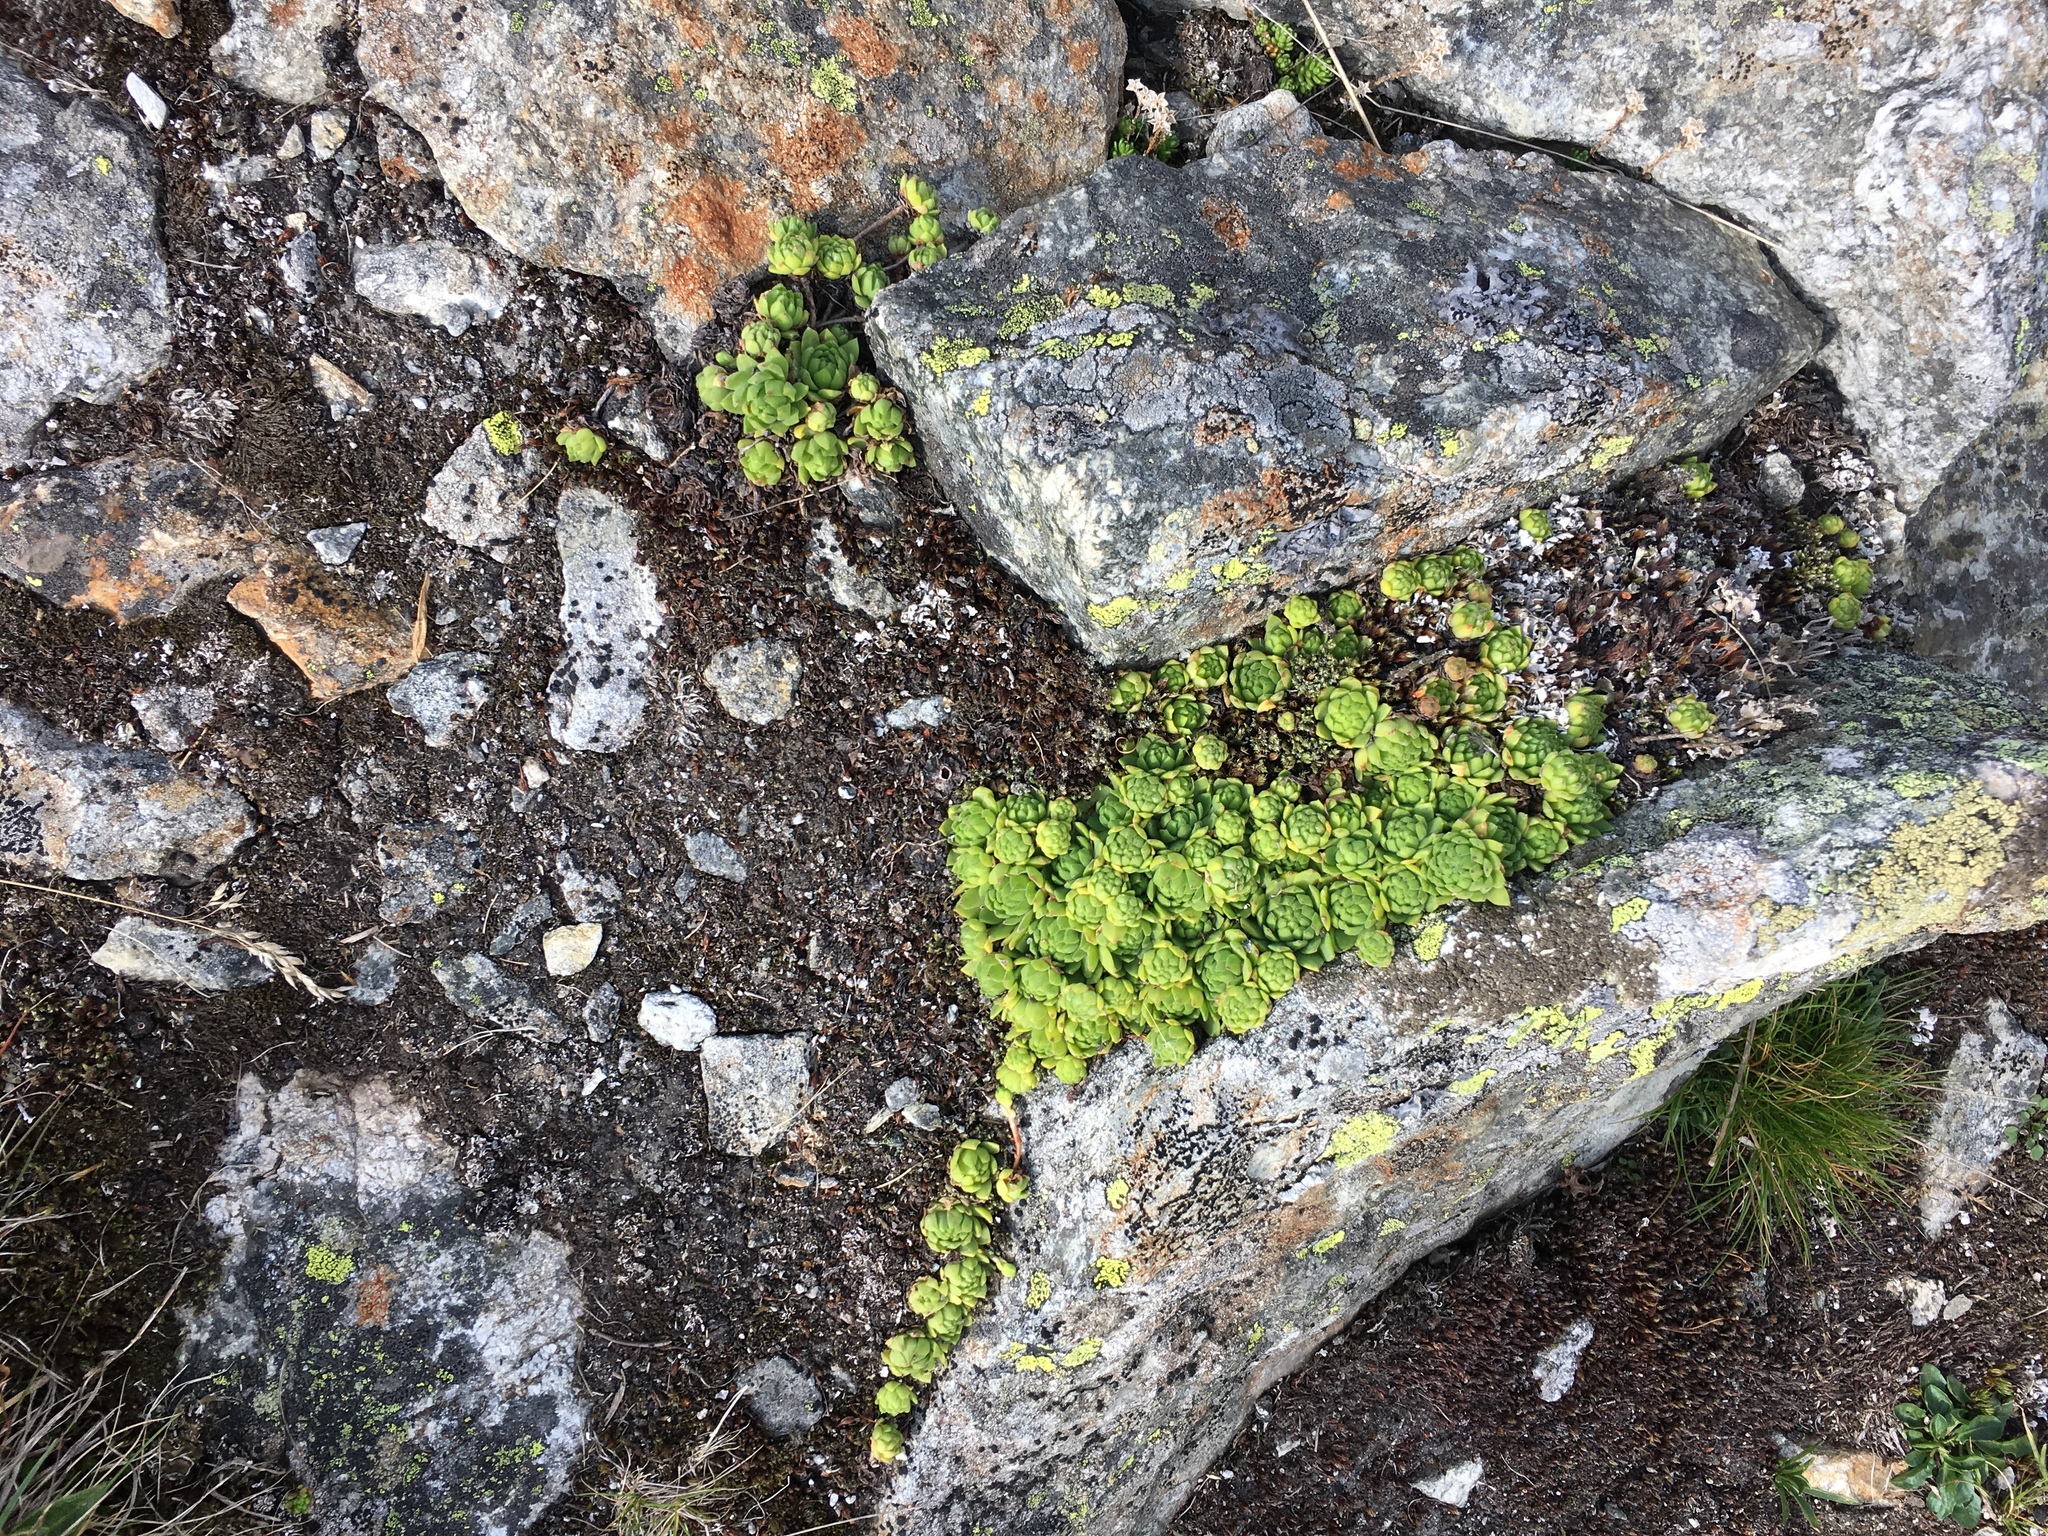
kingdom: Plantae
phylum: Tracheophyta
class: Magnoliopsida
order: Saxifragales
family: Crassulaceae
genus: Sempervivum
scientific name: Sempervivum montanum
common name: Mountain house-leek
